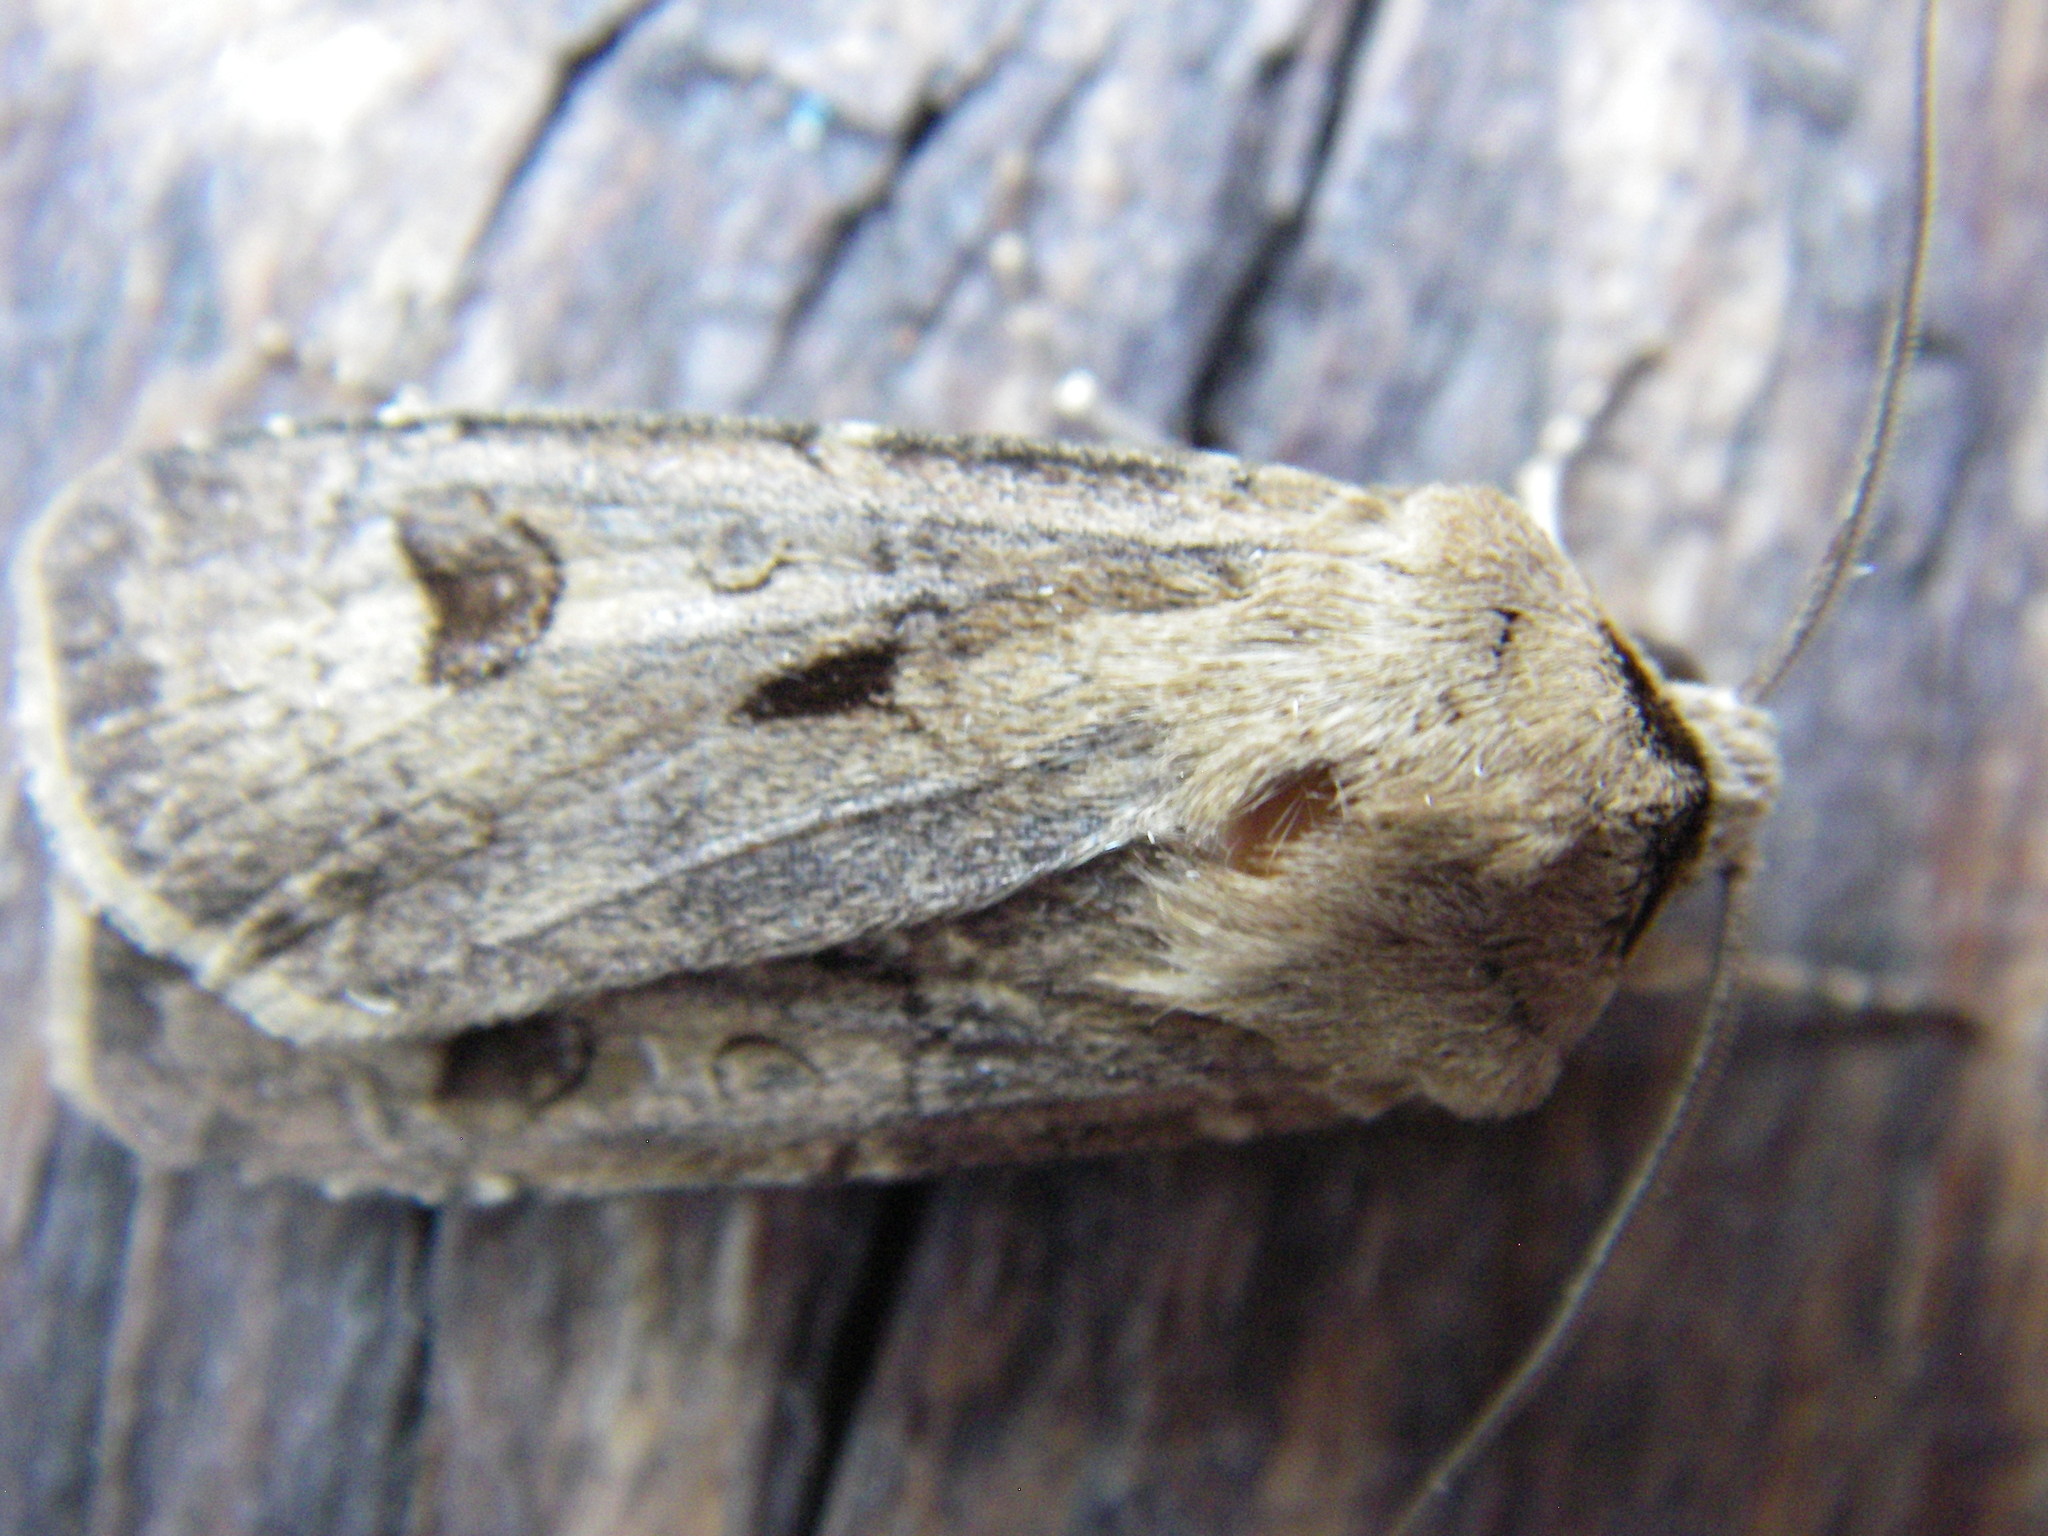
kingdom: Animalia
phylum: Arthropoda
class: Insecta
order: Lepidoptera
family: Noctuidae
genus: Agrotis
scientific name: Agrotis exclamationis
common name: Heart and dart
